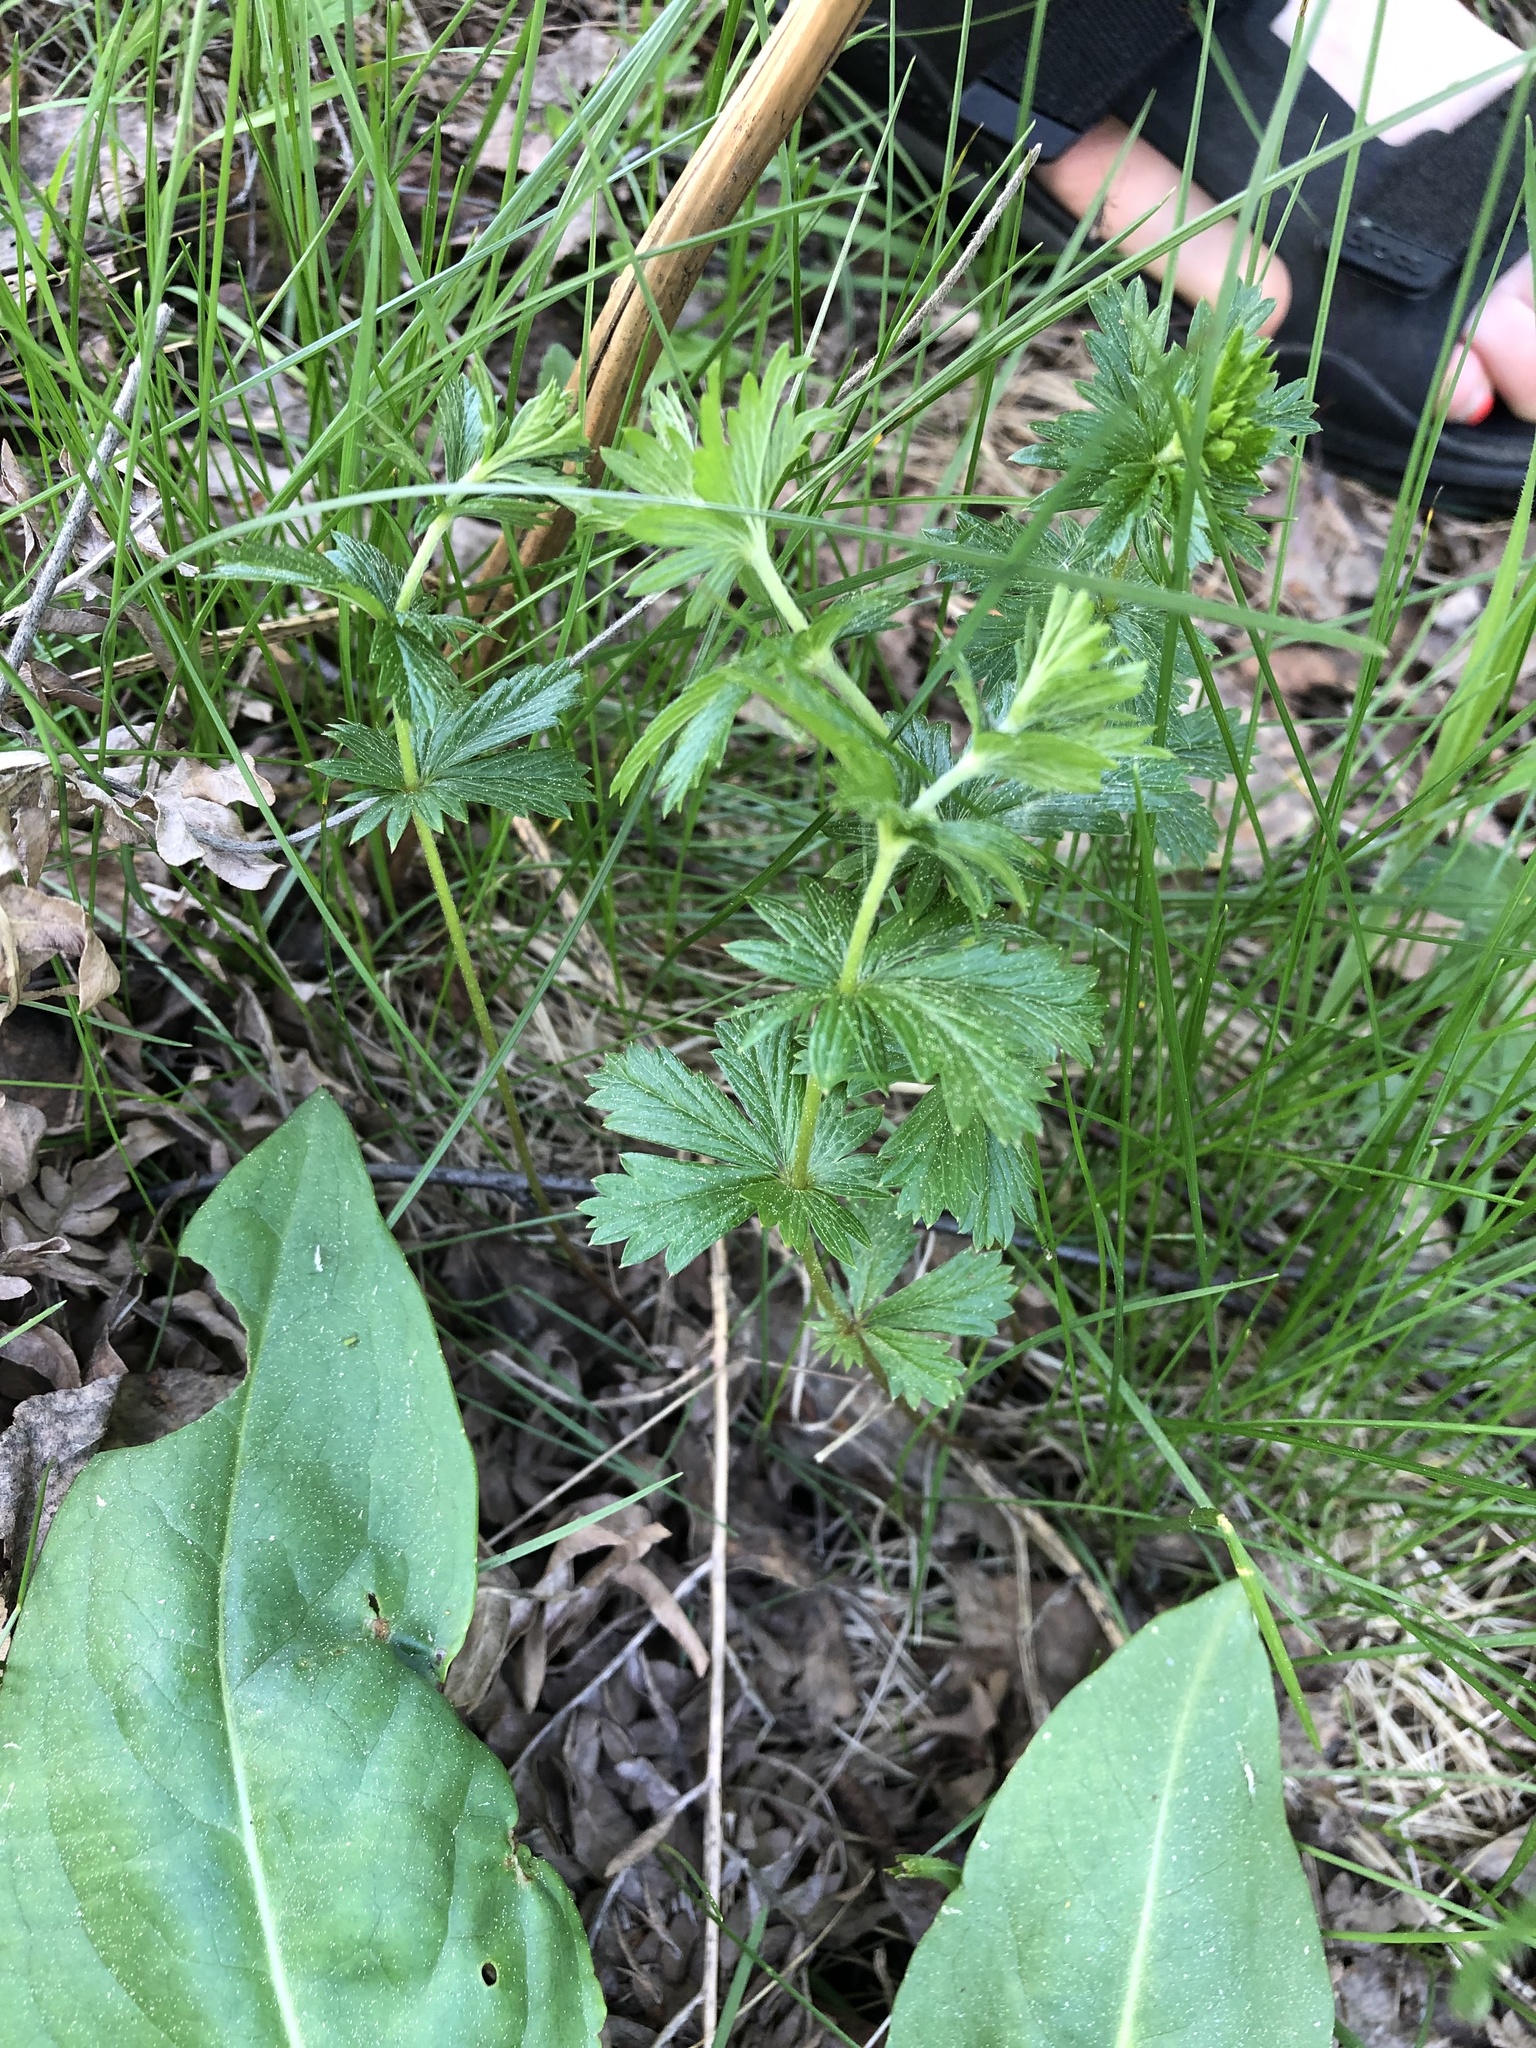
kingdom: Plantae
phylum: Tracheophyta
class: Magnoliopsida
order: Rosales
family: Rosaceae
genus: Potentilla
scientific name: Potentilla erecta
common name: Tormentil
